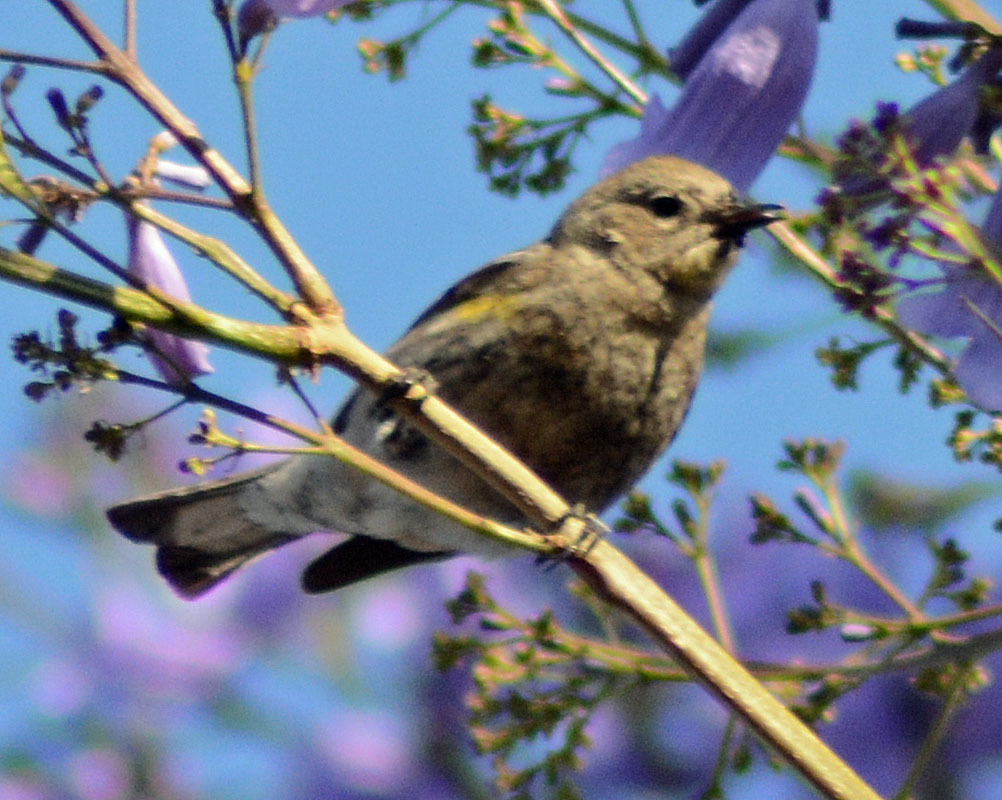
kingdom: Animalia
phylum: Chordata
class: Aves
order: Passeriformes
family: Parulidae
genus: Setophaga
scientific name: Setophaga coronata
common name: Myrtle warbler
